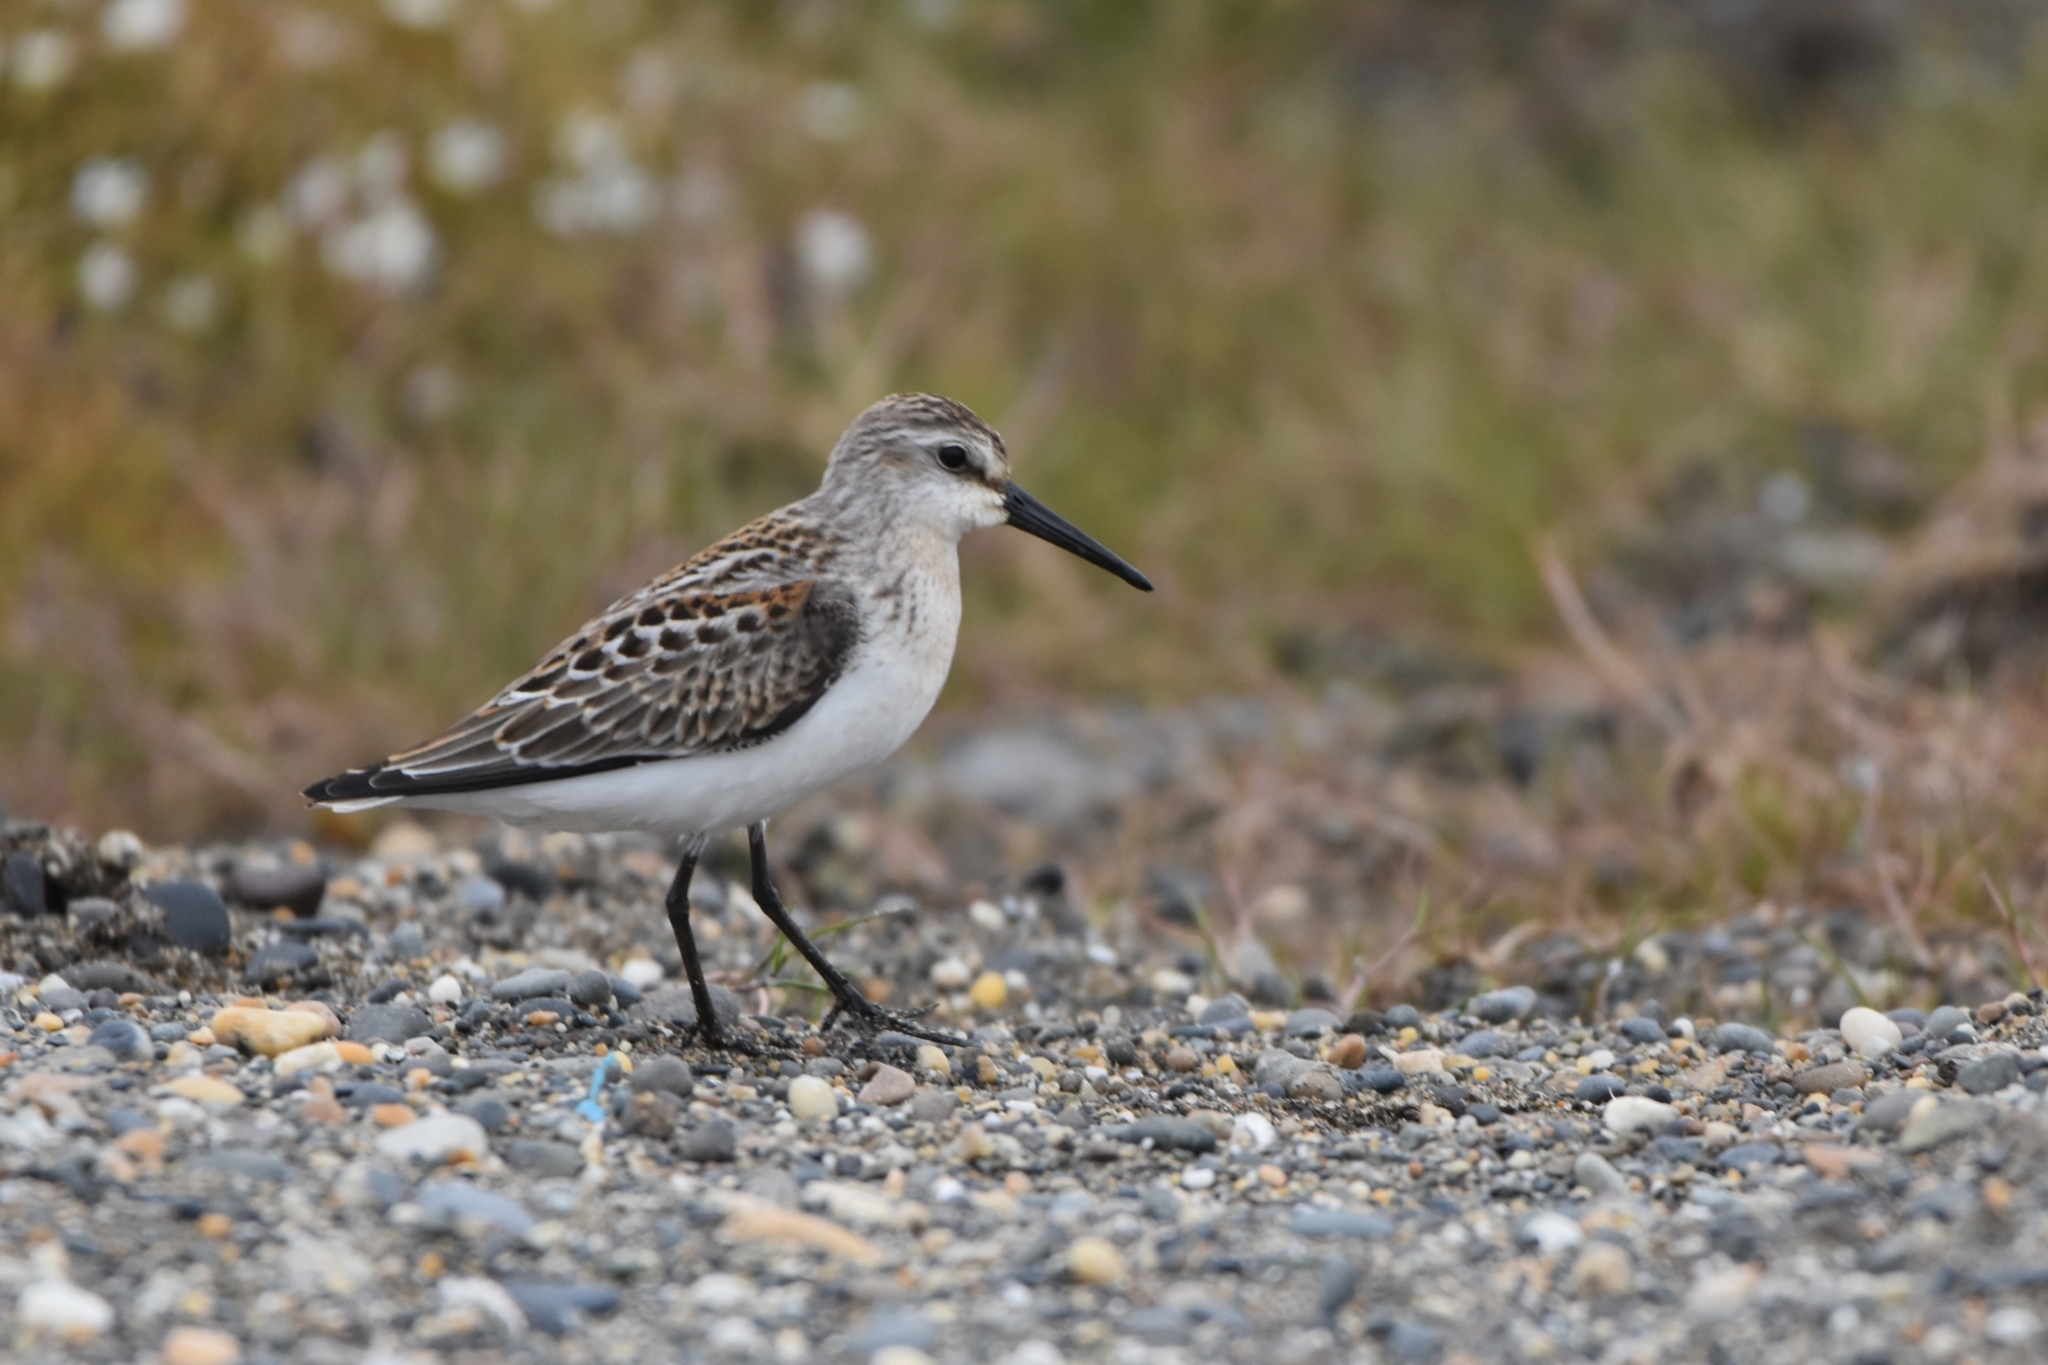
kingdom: Animalia
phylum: Chordata
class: Aves
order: Charadriiformes
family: Scolopacidae
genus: Calidris
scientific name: Calidris mauri
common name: Western sandpiper
